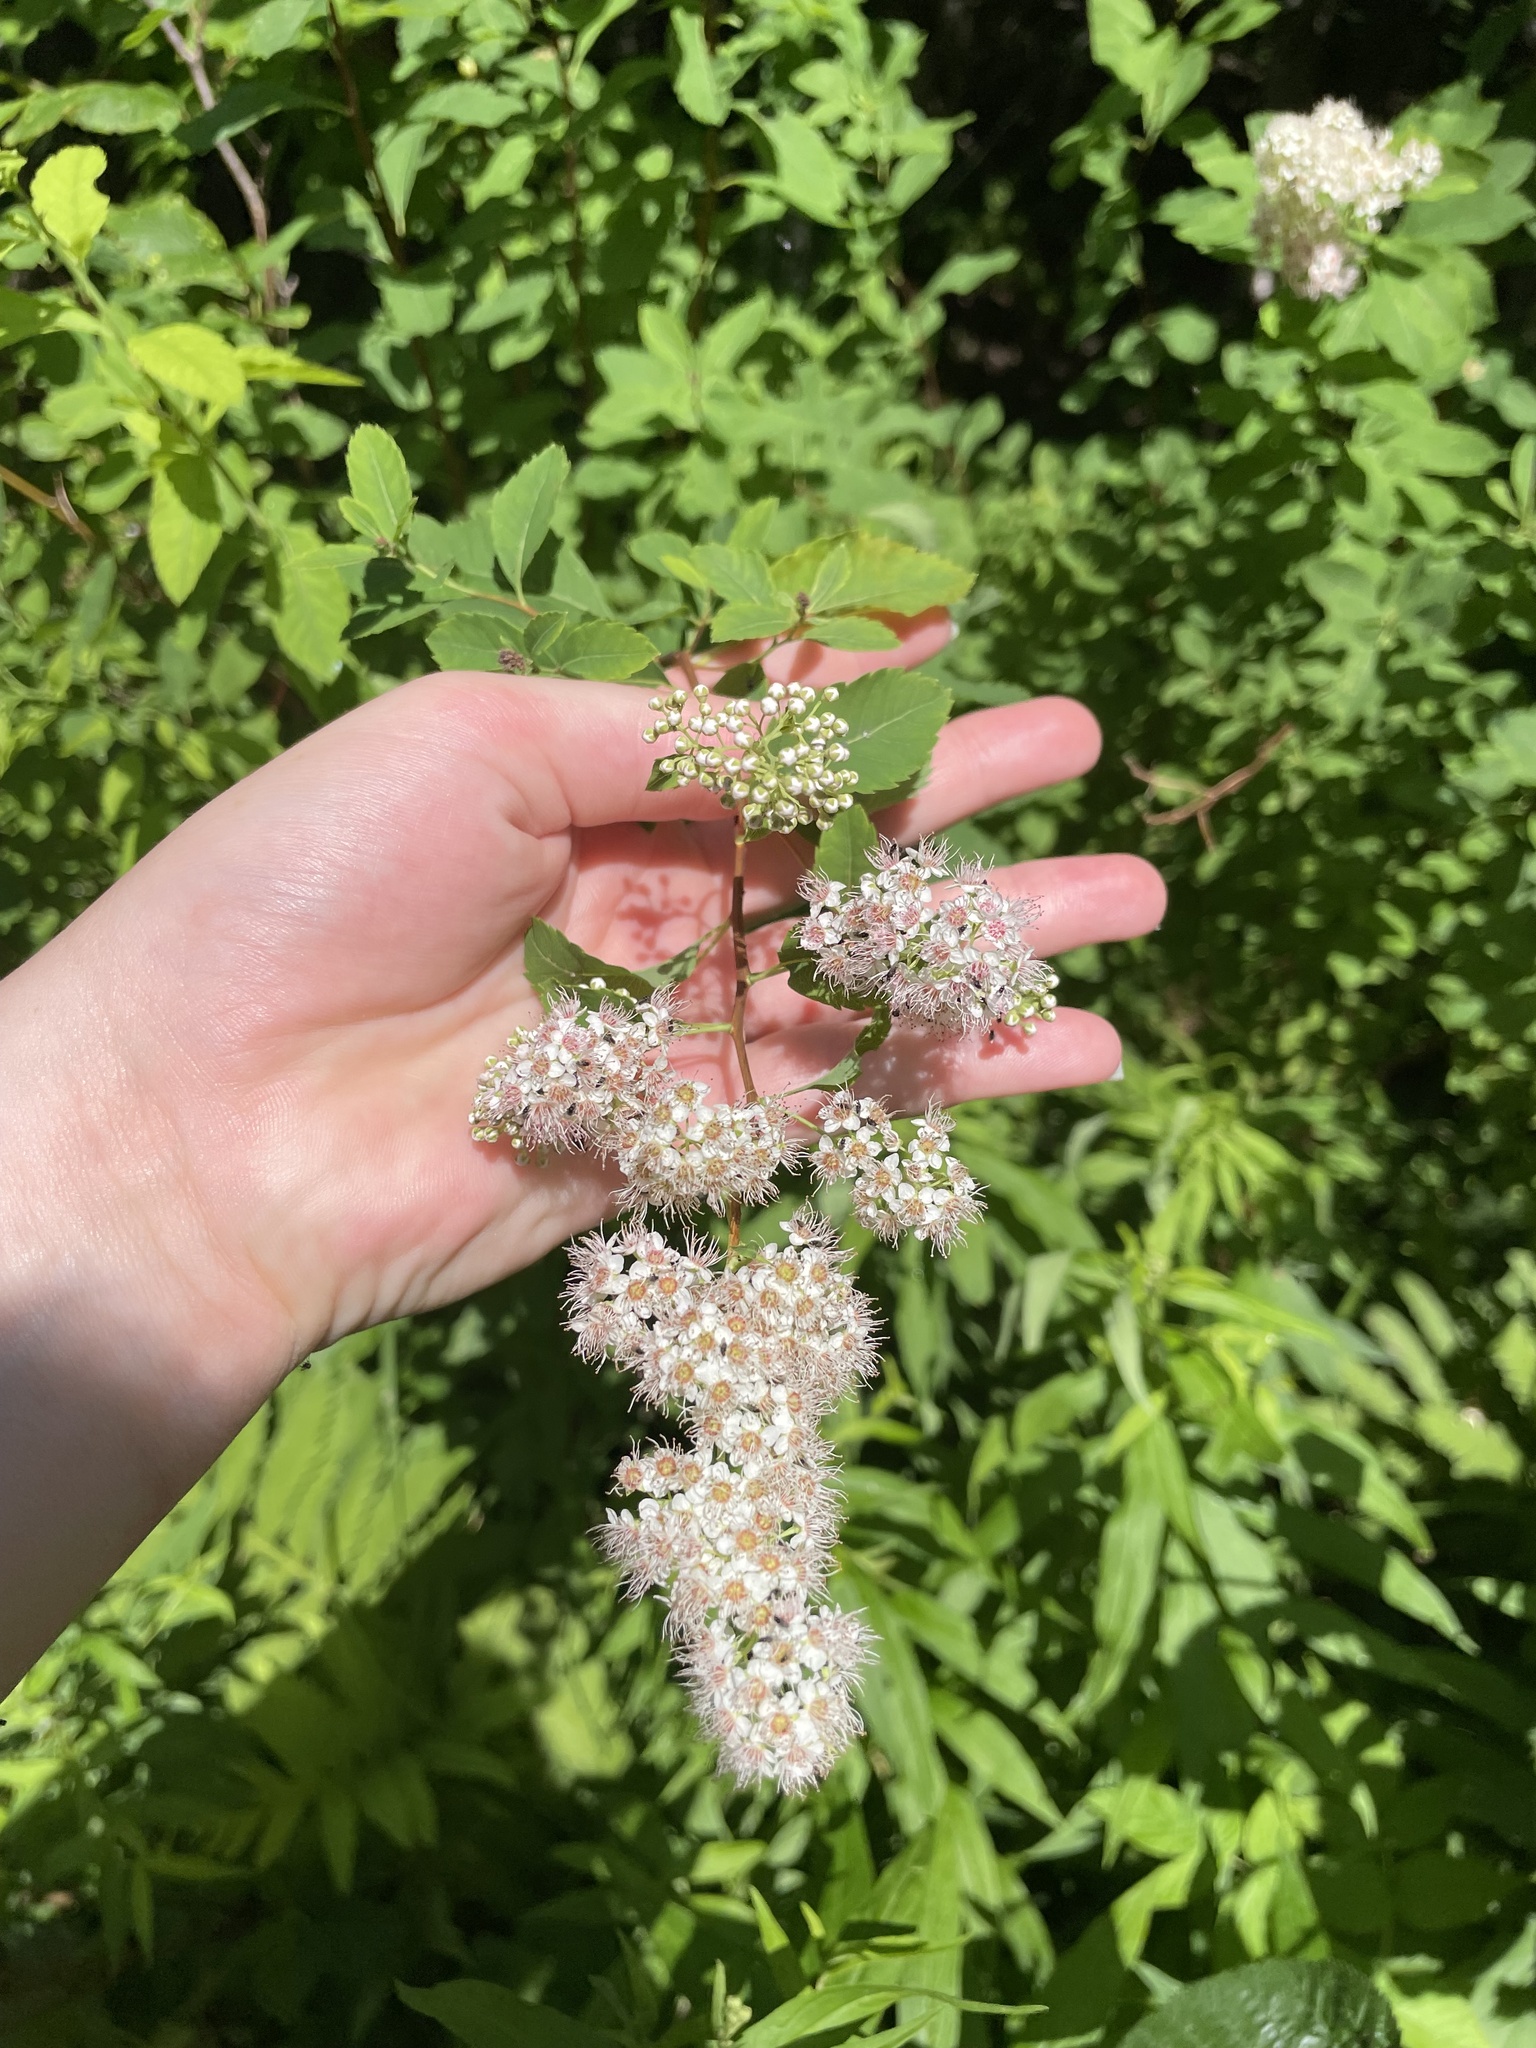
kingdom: Plantae
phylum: Tracheophyta
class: Magnoliopsida
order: Rosales
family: Rosaceae
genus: Spiraea
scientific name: Spiraea alba
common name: Pale bridewort
